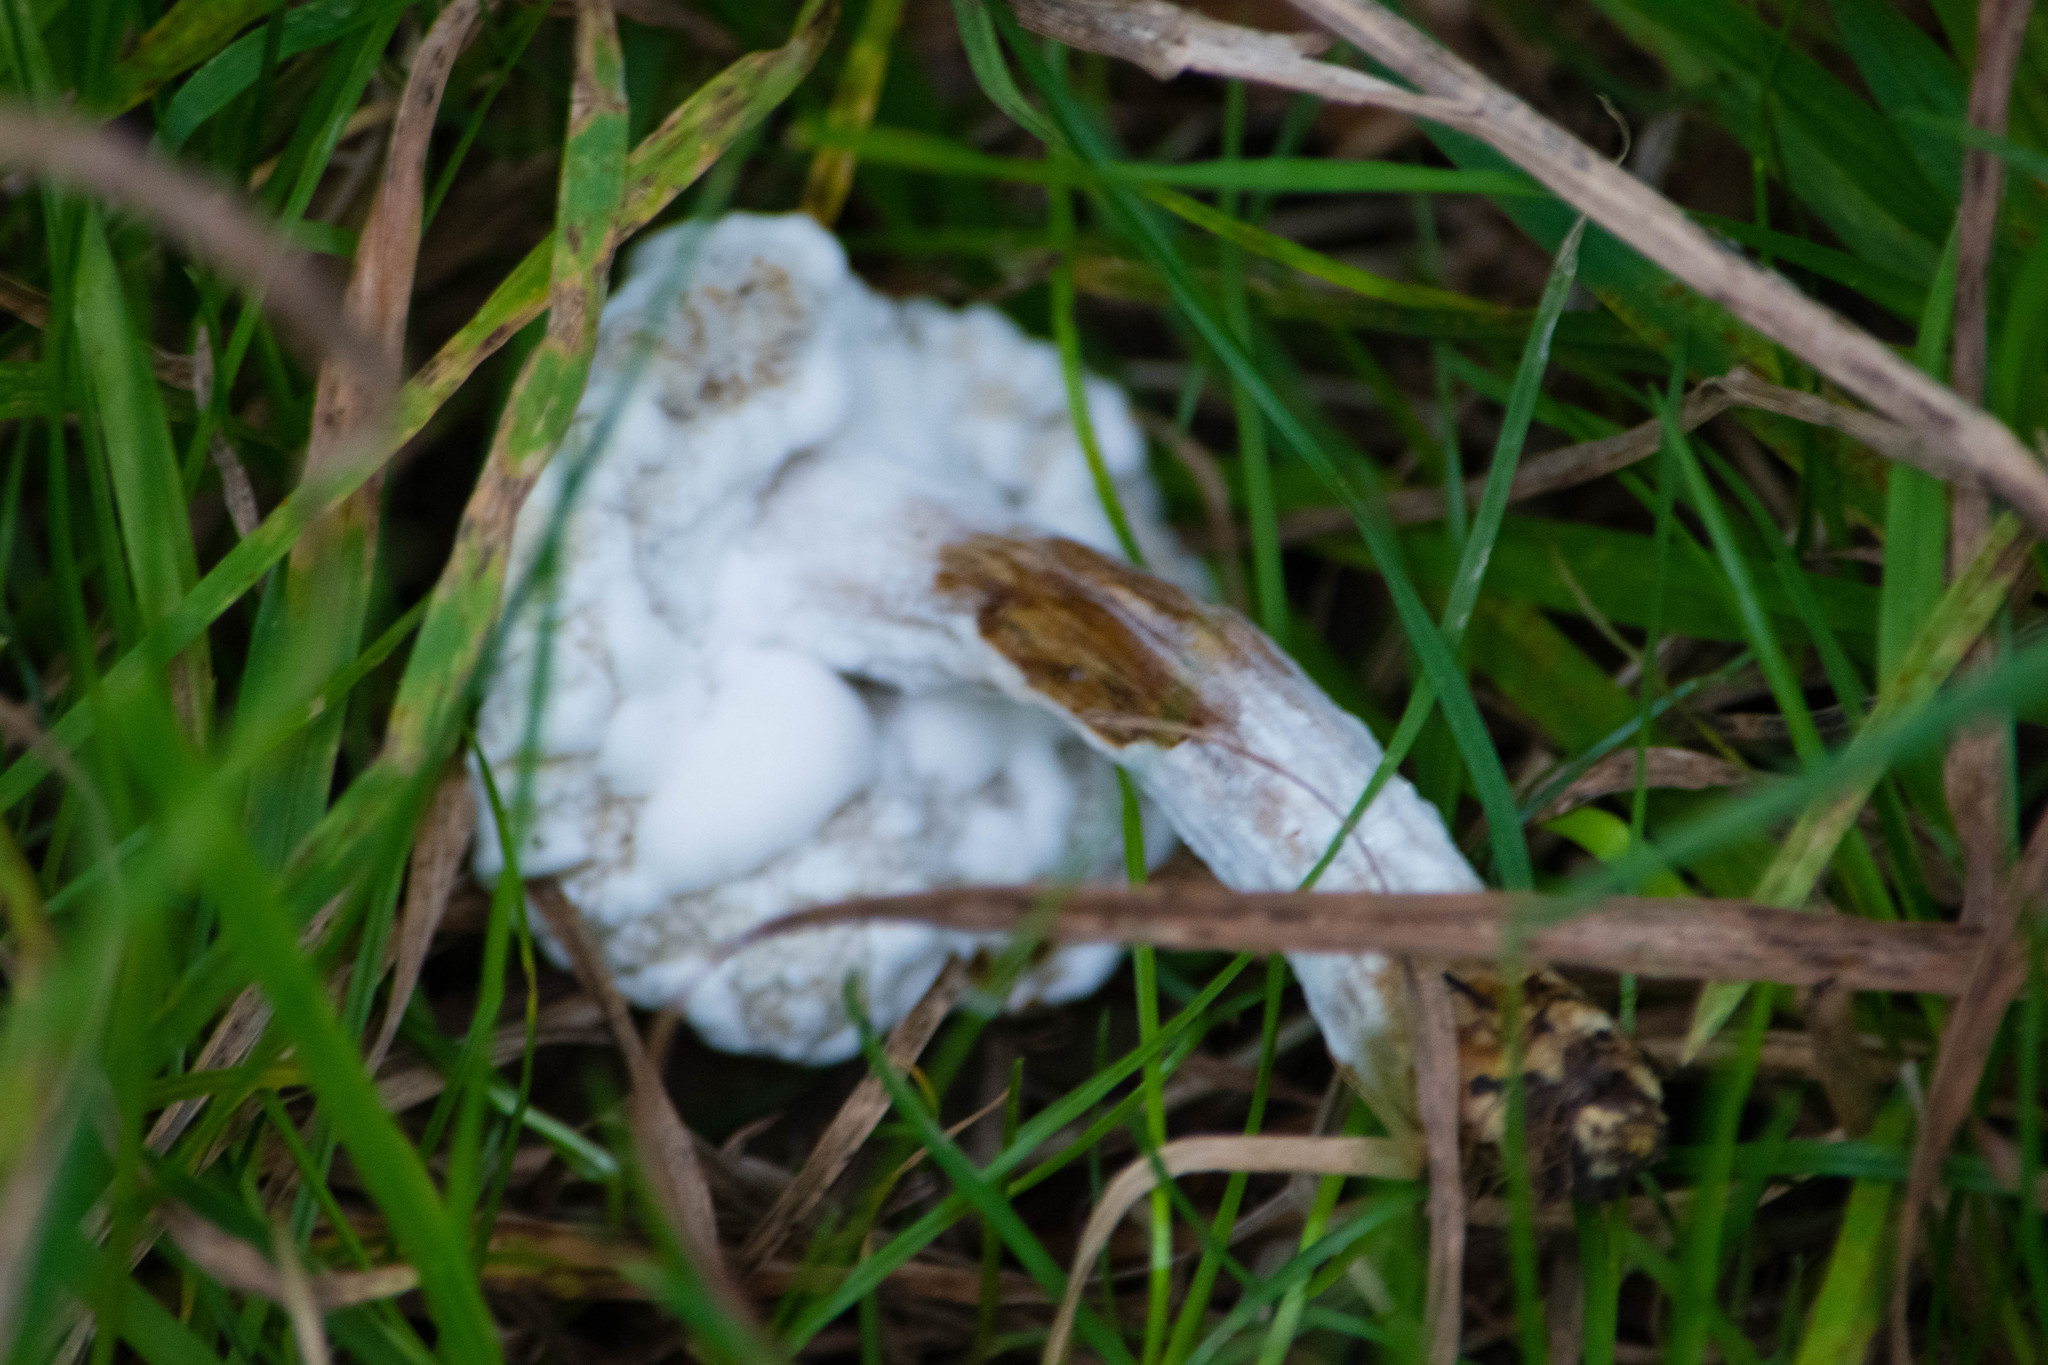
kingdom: Fungi
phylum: Ascomycota
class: Sordariomycetes
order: Hypocreales
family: Hypocreaceae
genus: Hypomyces
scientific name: Hypomyces chrysospermus
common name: Bolete mould
